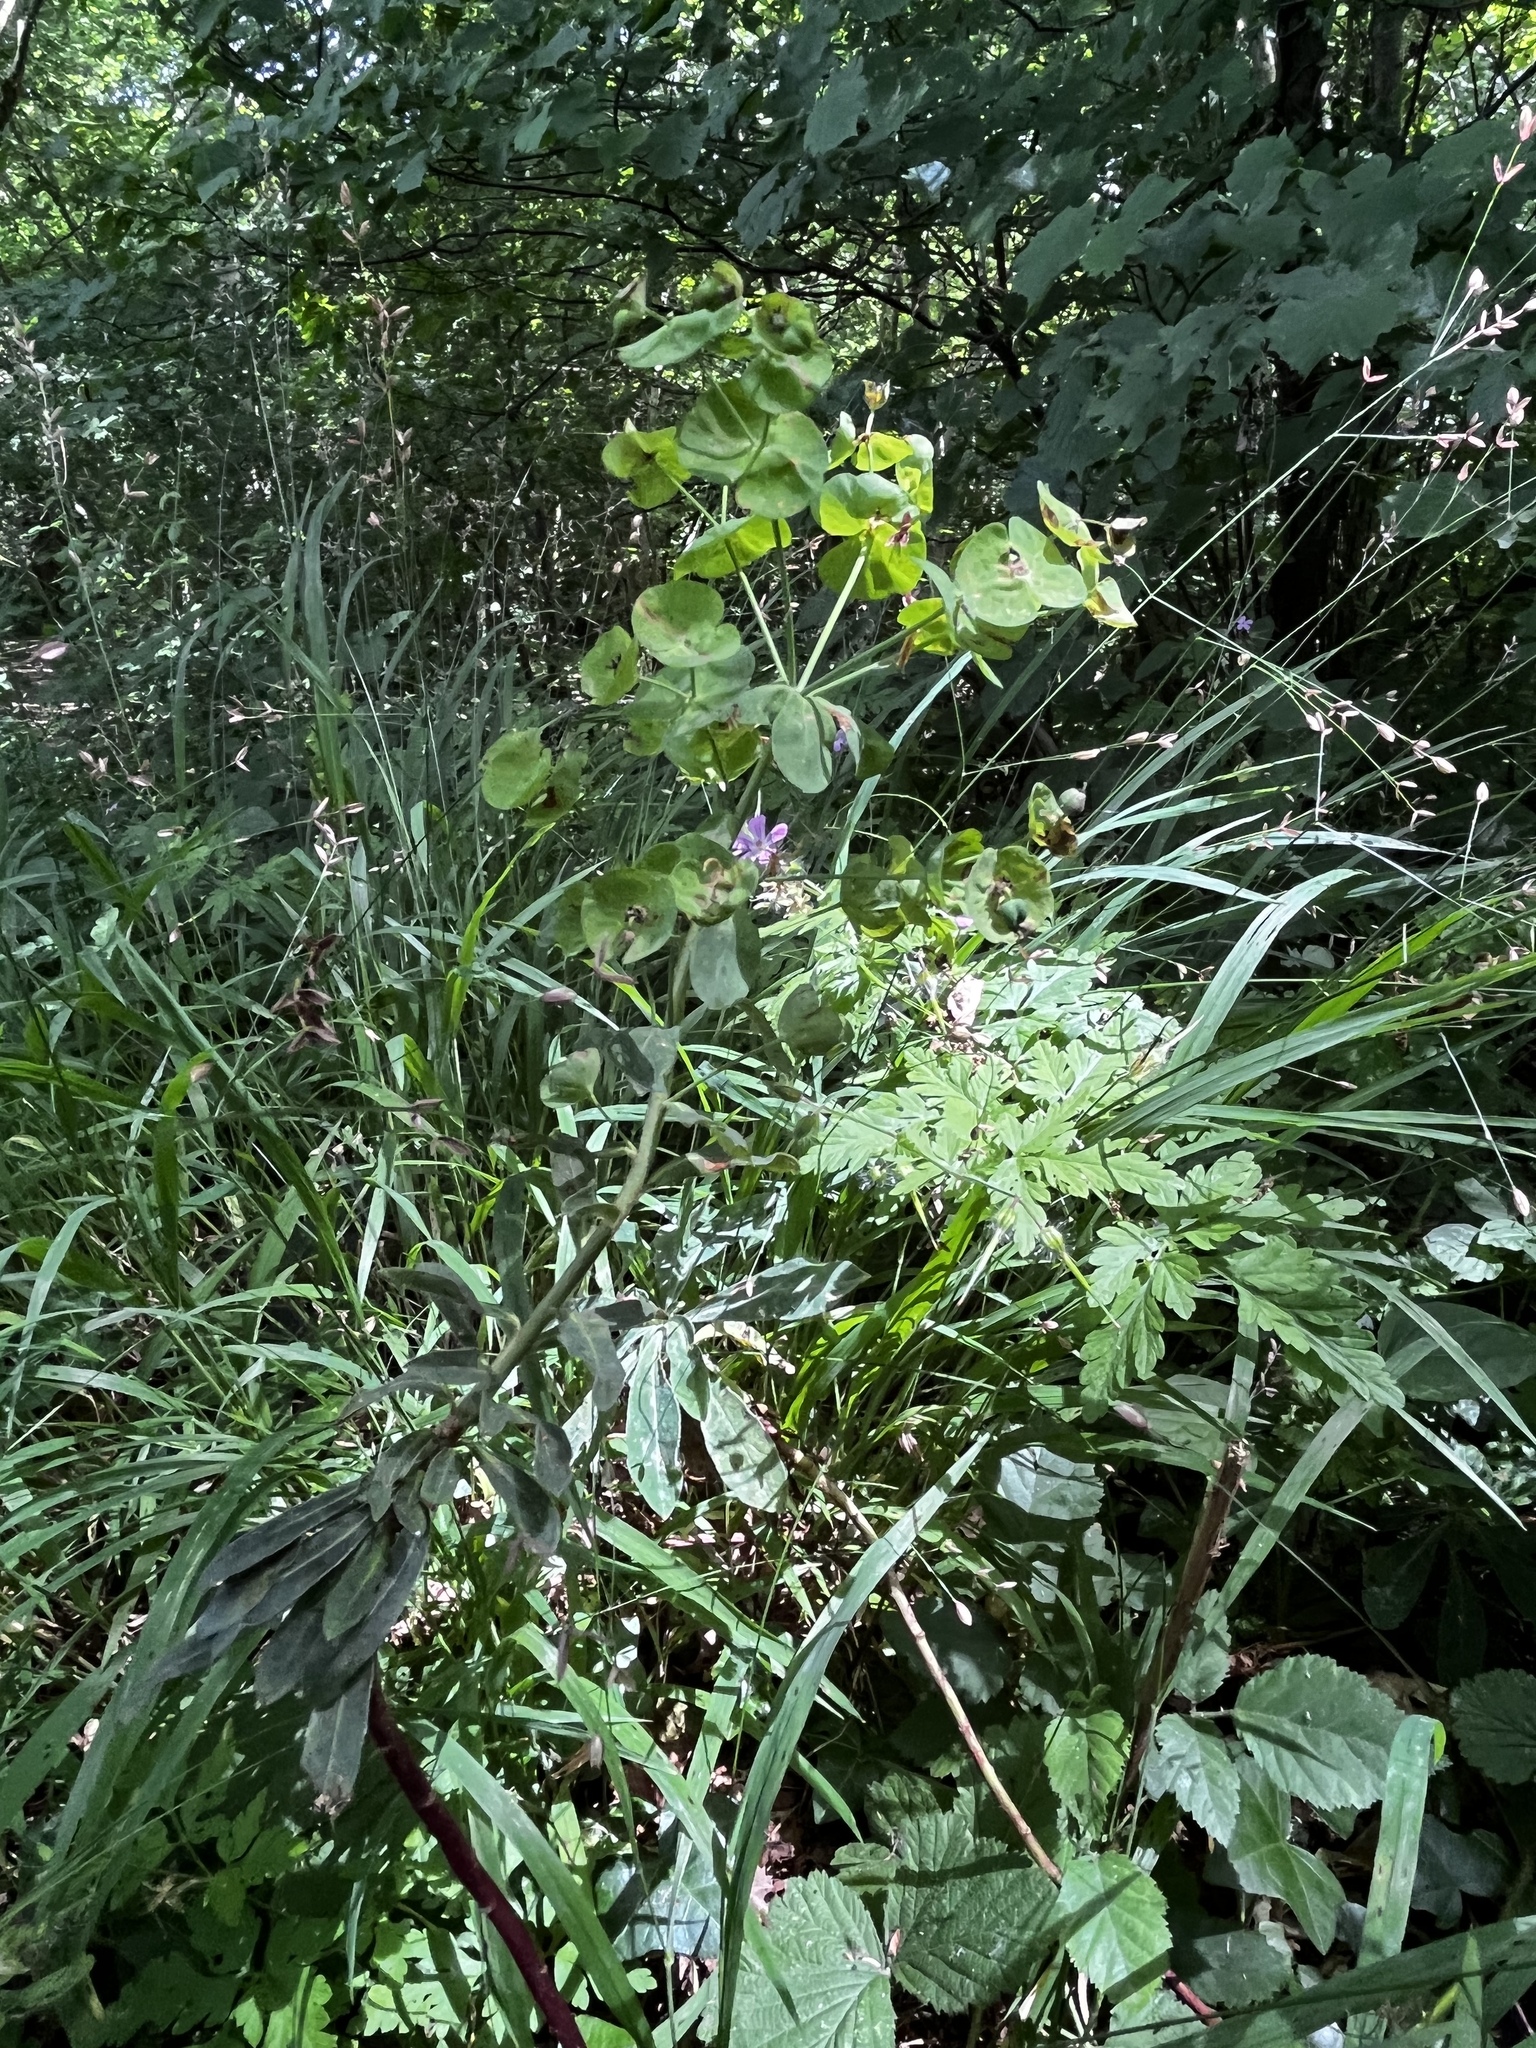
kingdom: Plantae
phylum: Tracheophyta
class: Magnoliopsida
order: Malpighiales
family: Euphorbiaceae
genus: Euphorbia
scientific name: Euphorbia amygdaloides
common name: Wood spurge
